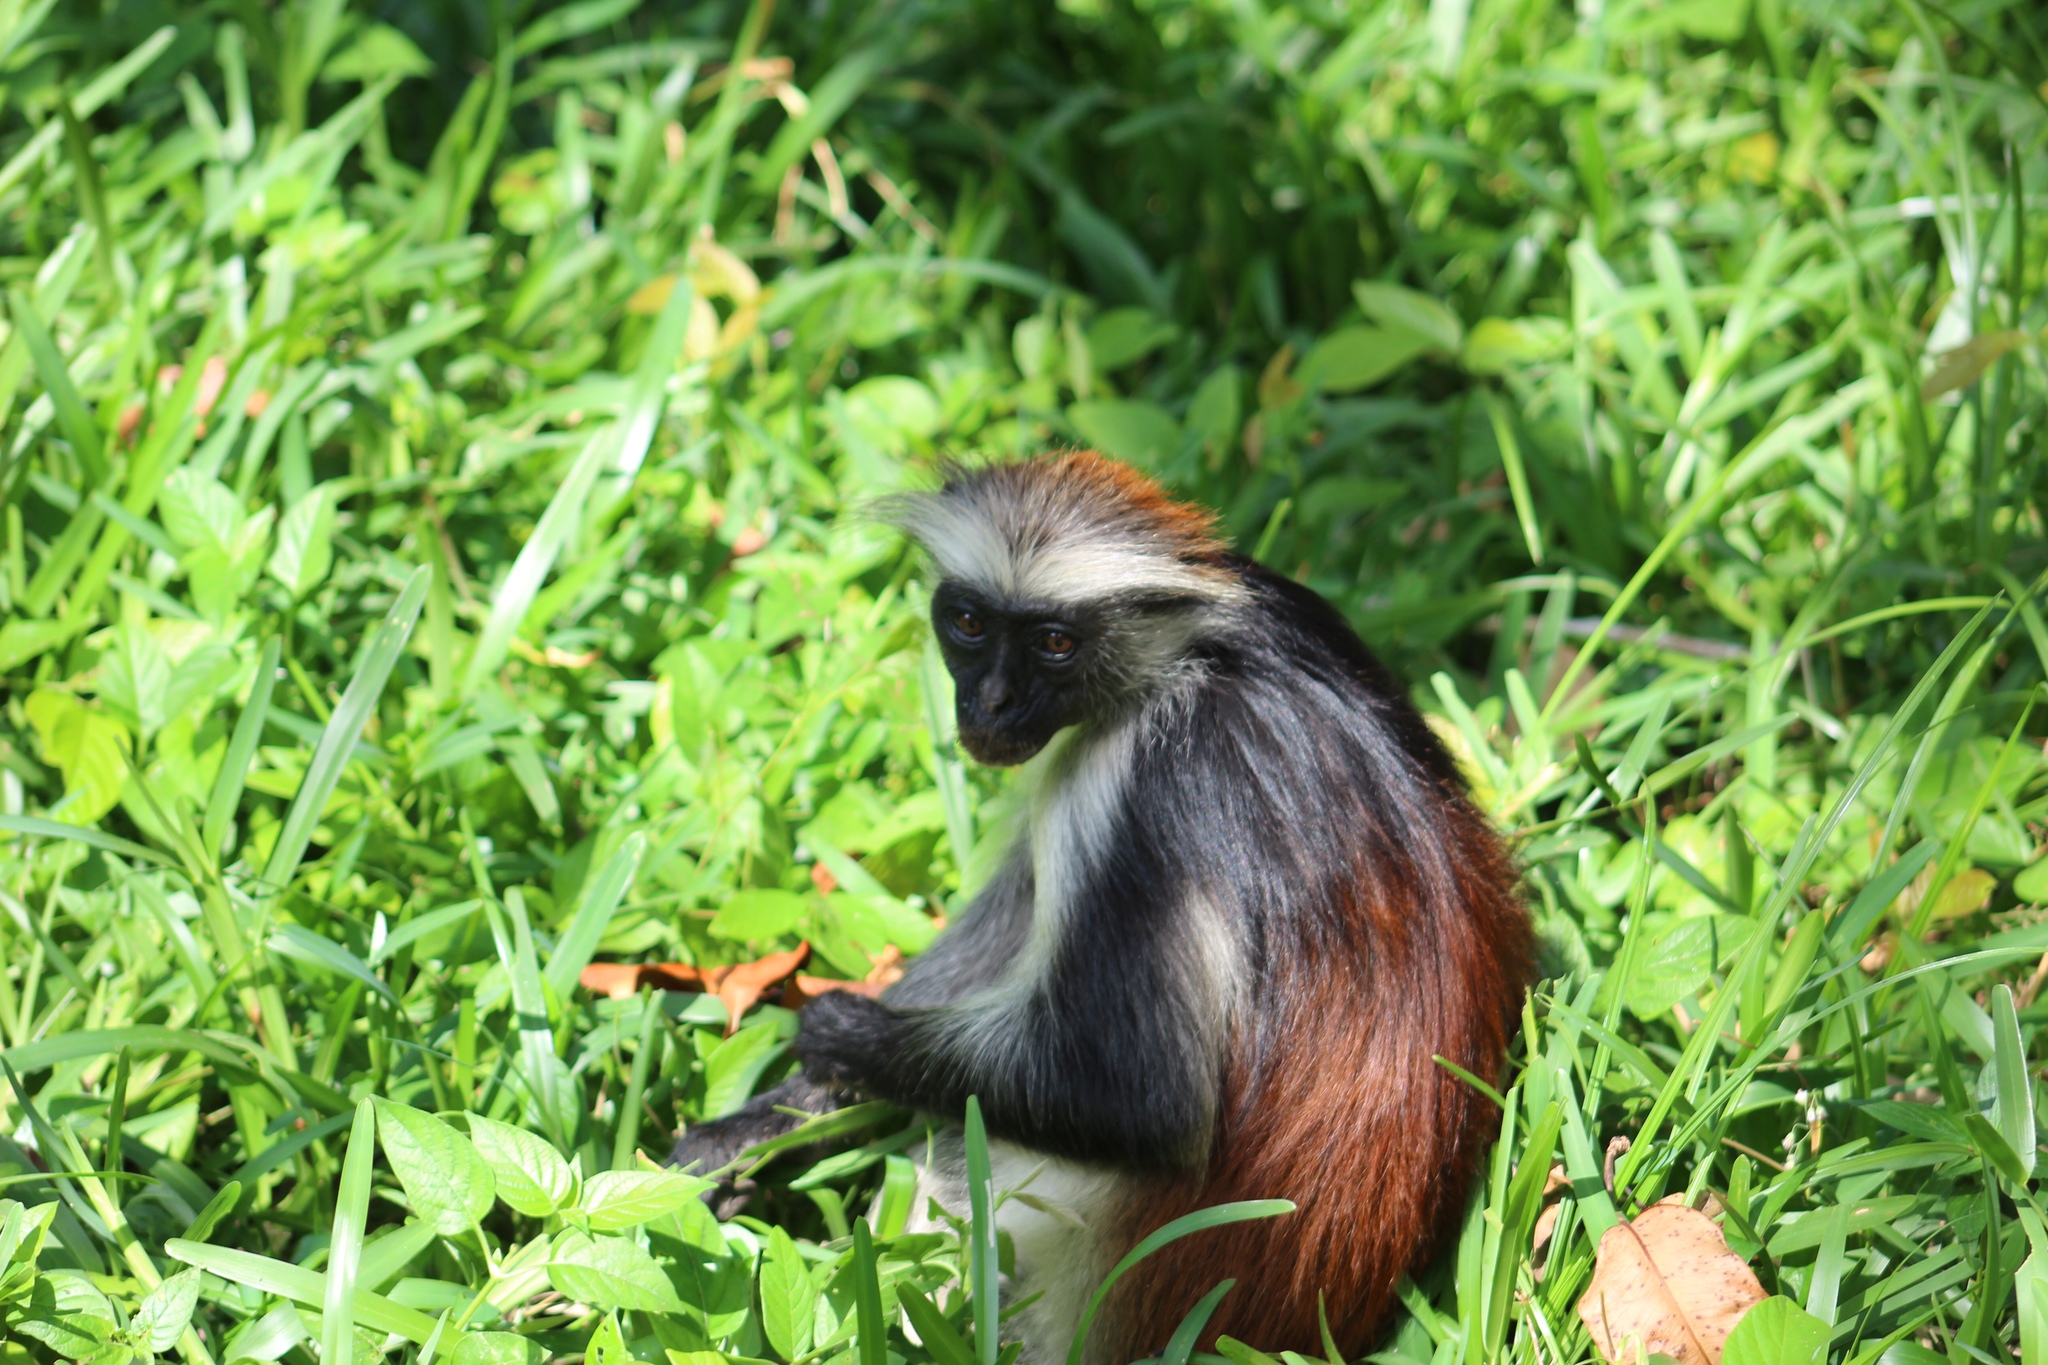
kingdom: Animalia
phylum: Chordata
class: Mammalia
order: Primates
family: Cercopithecidae
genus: Piliocolobus
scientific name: Piliocolobus kirkii
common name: Zanzibar red colobus
